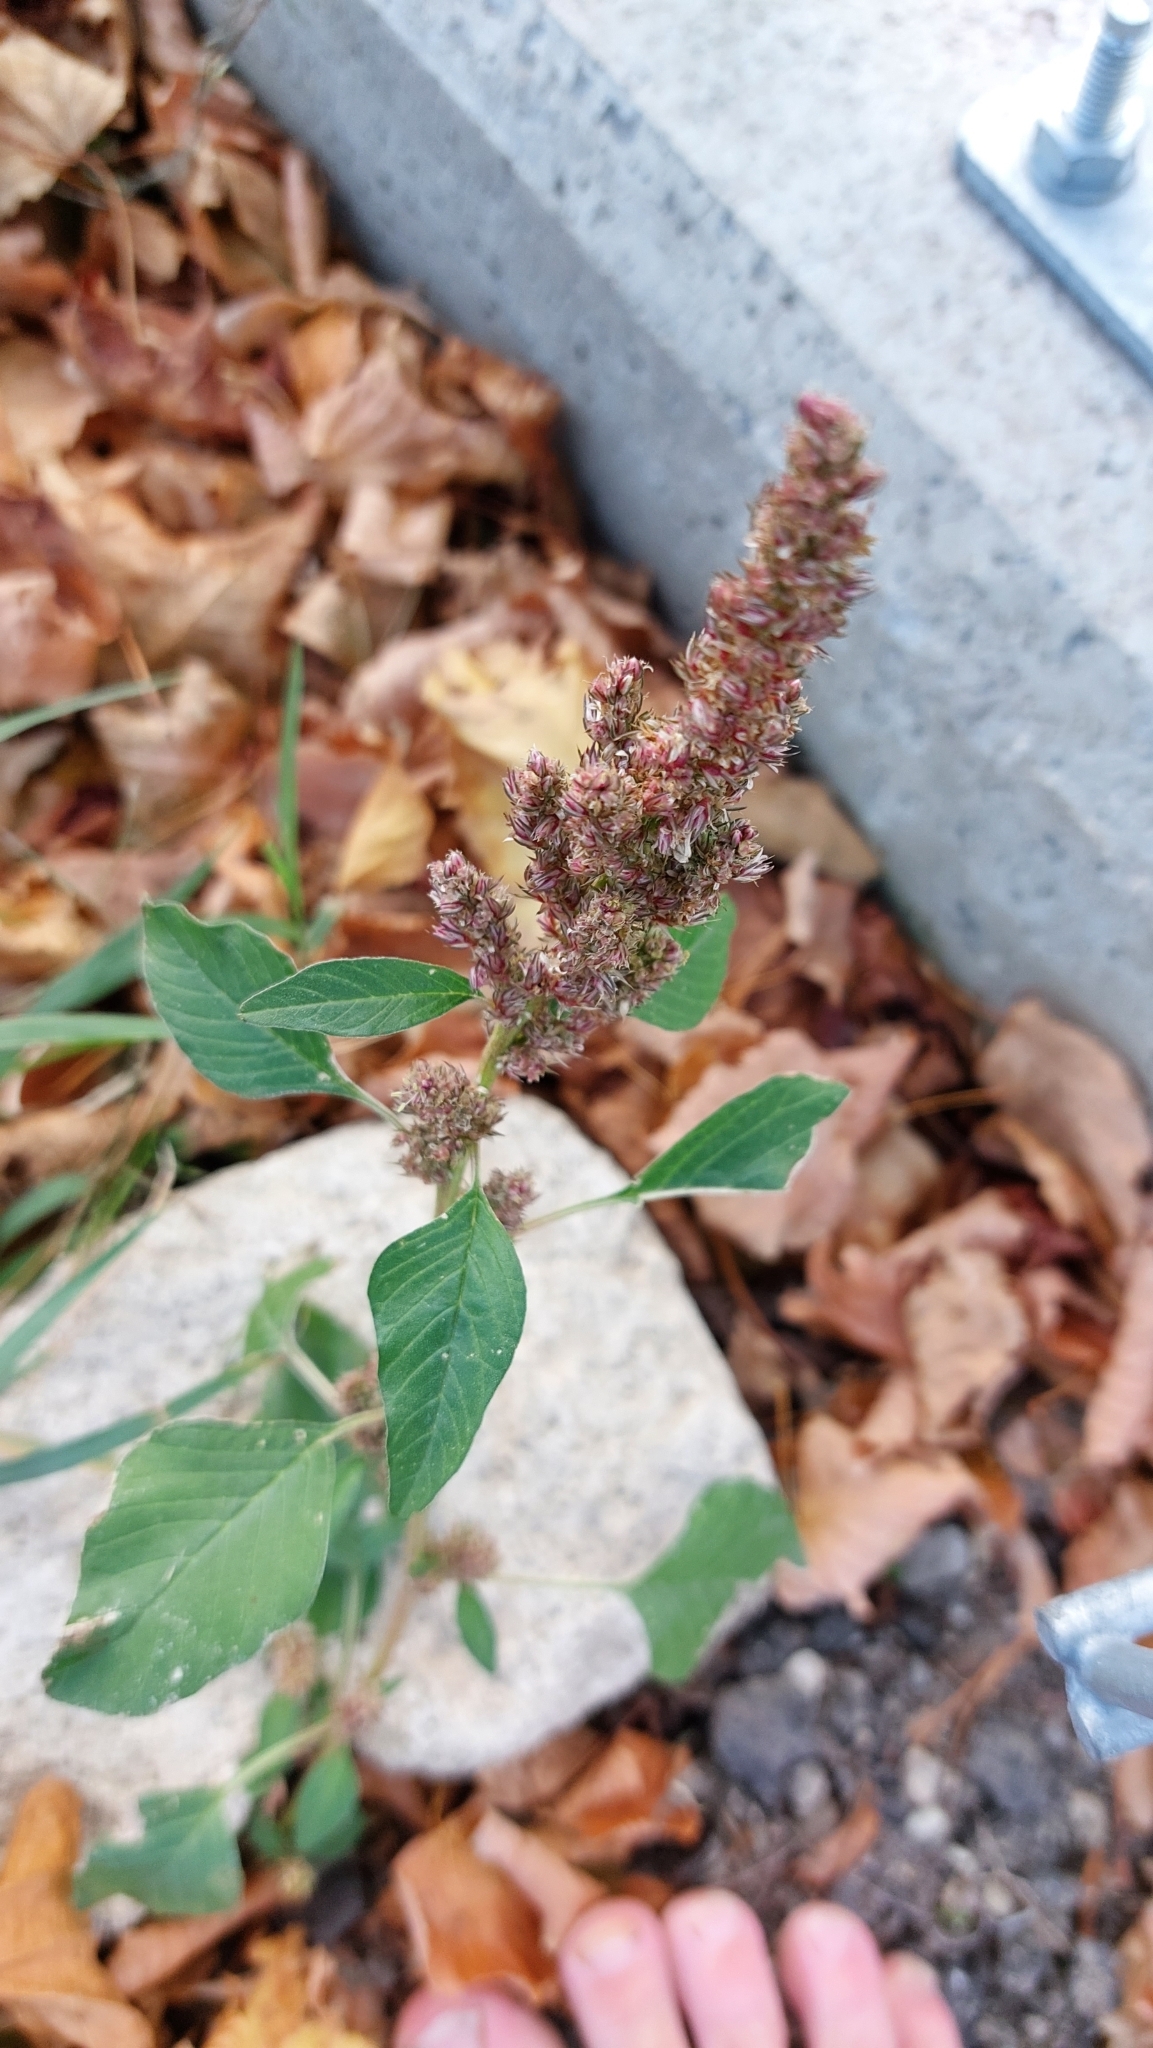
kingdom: Plantae
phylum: Tracheophyta
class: Magnoliopsida
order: Caryophyllales
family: Amaranthaceae
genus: Amaranthus
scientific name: Amaranthus retroflexus
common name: Redroot amaranth
